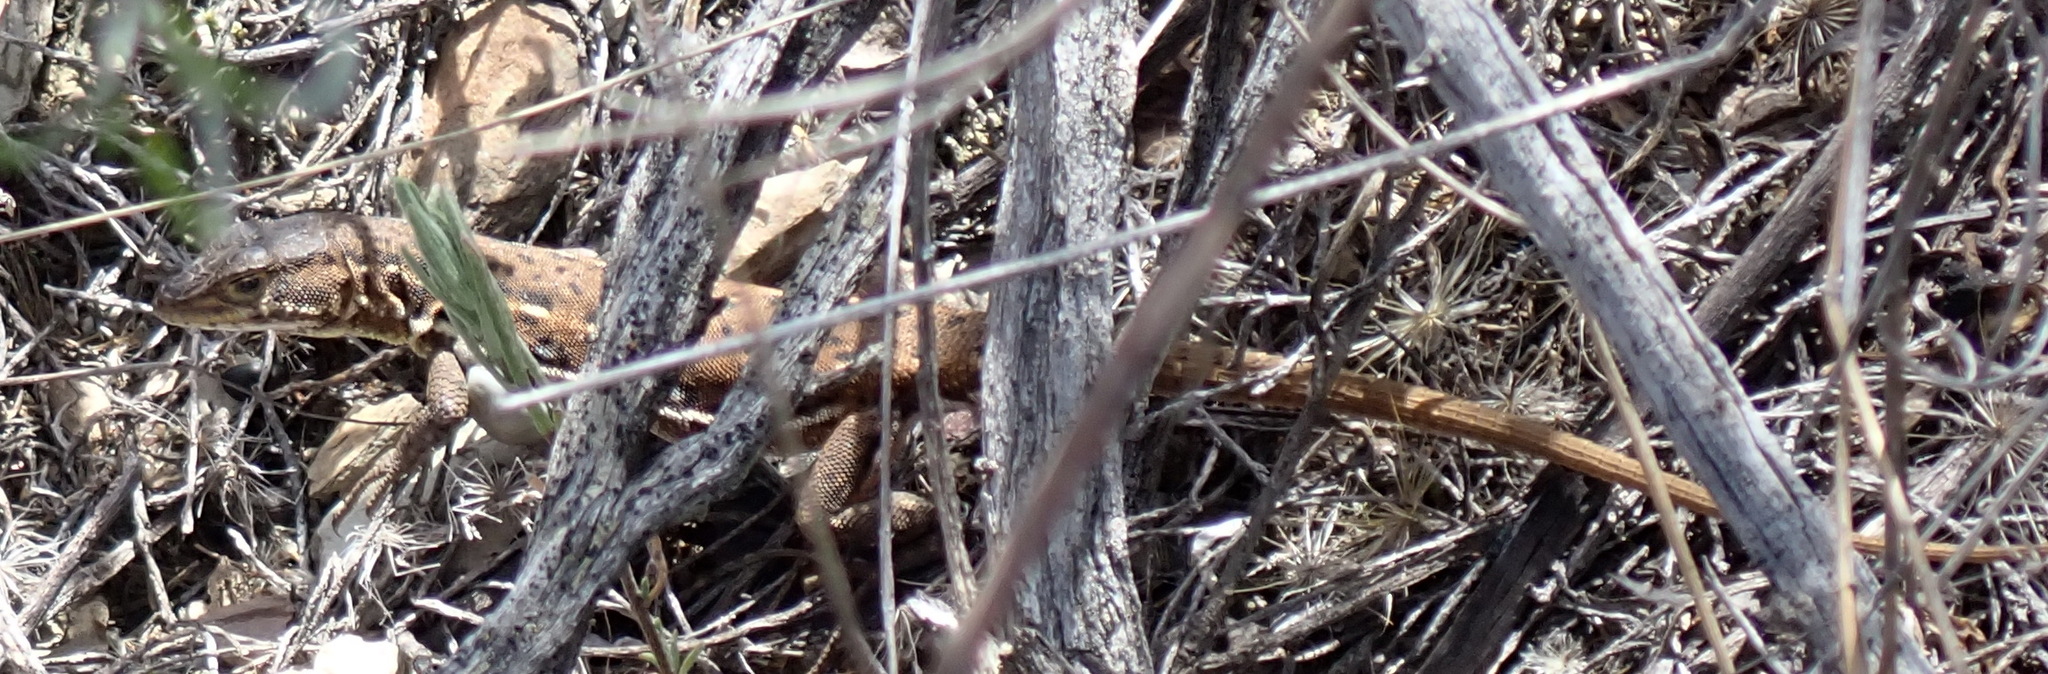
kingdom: Animalia
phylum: Chordata
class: Squamata
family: Lacertidae
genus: Pedioplanis
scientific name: Pedioplanis lineoocellata
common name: Spotted sand lizard
